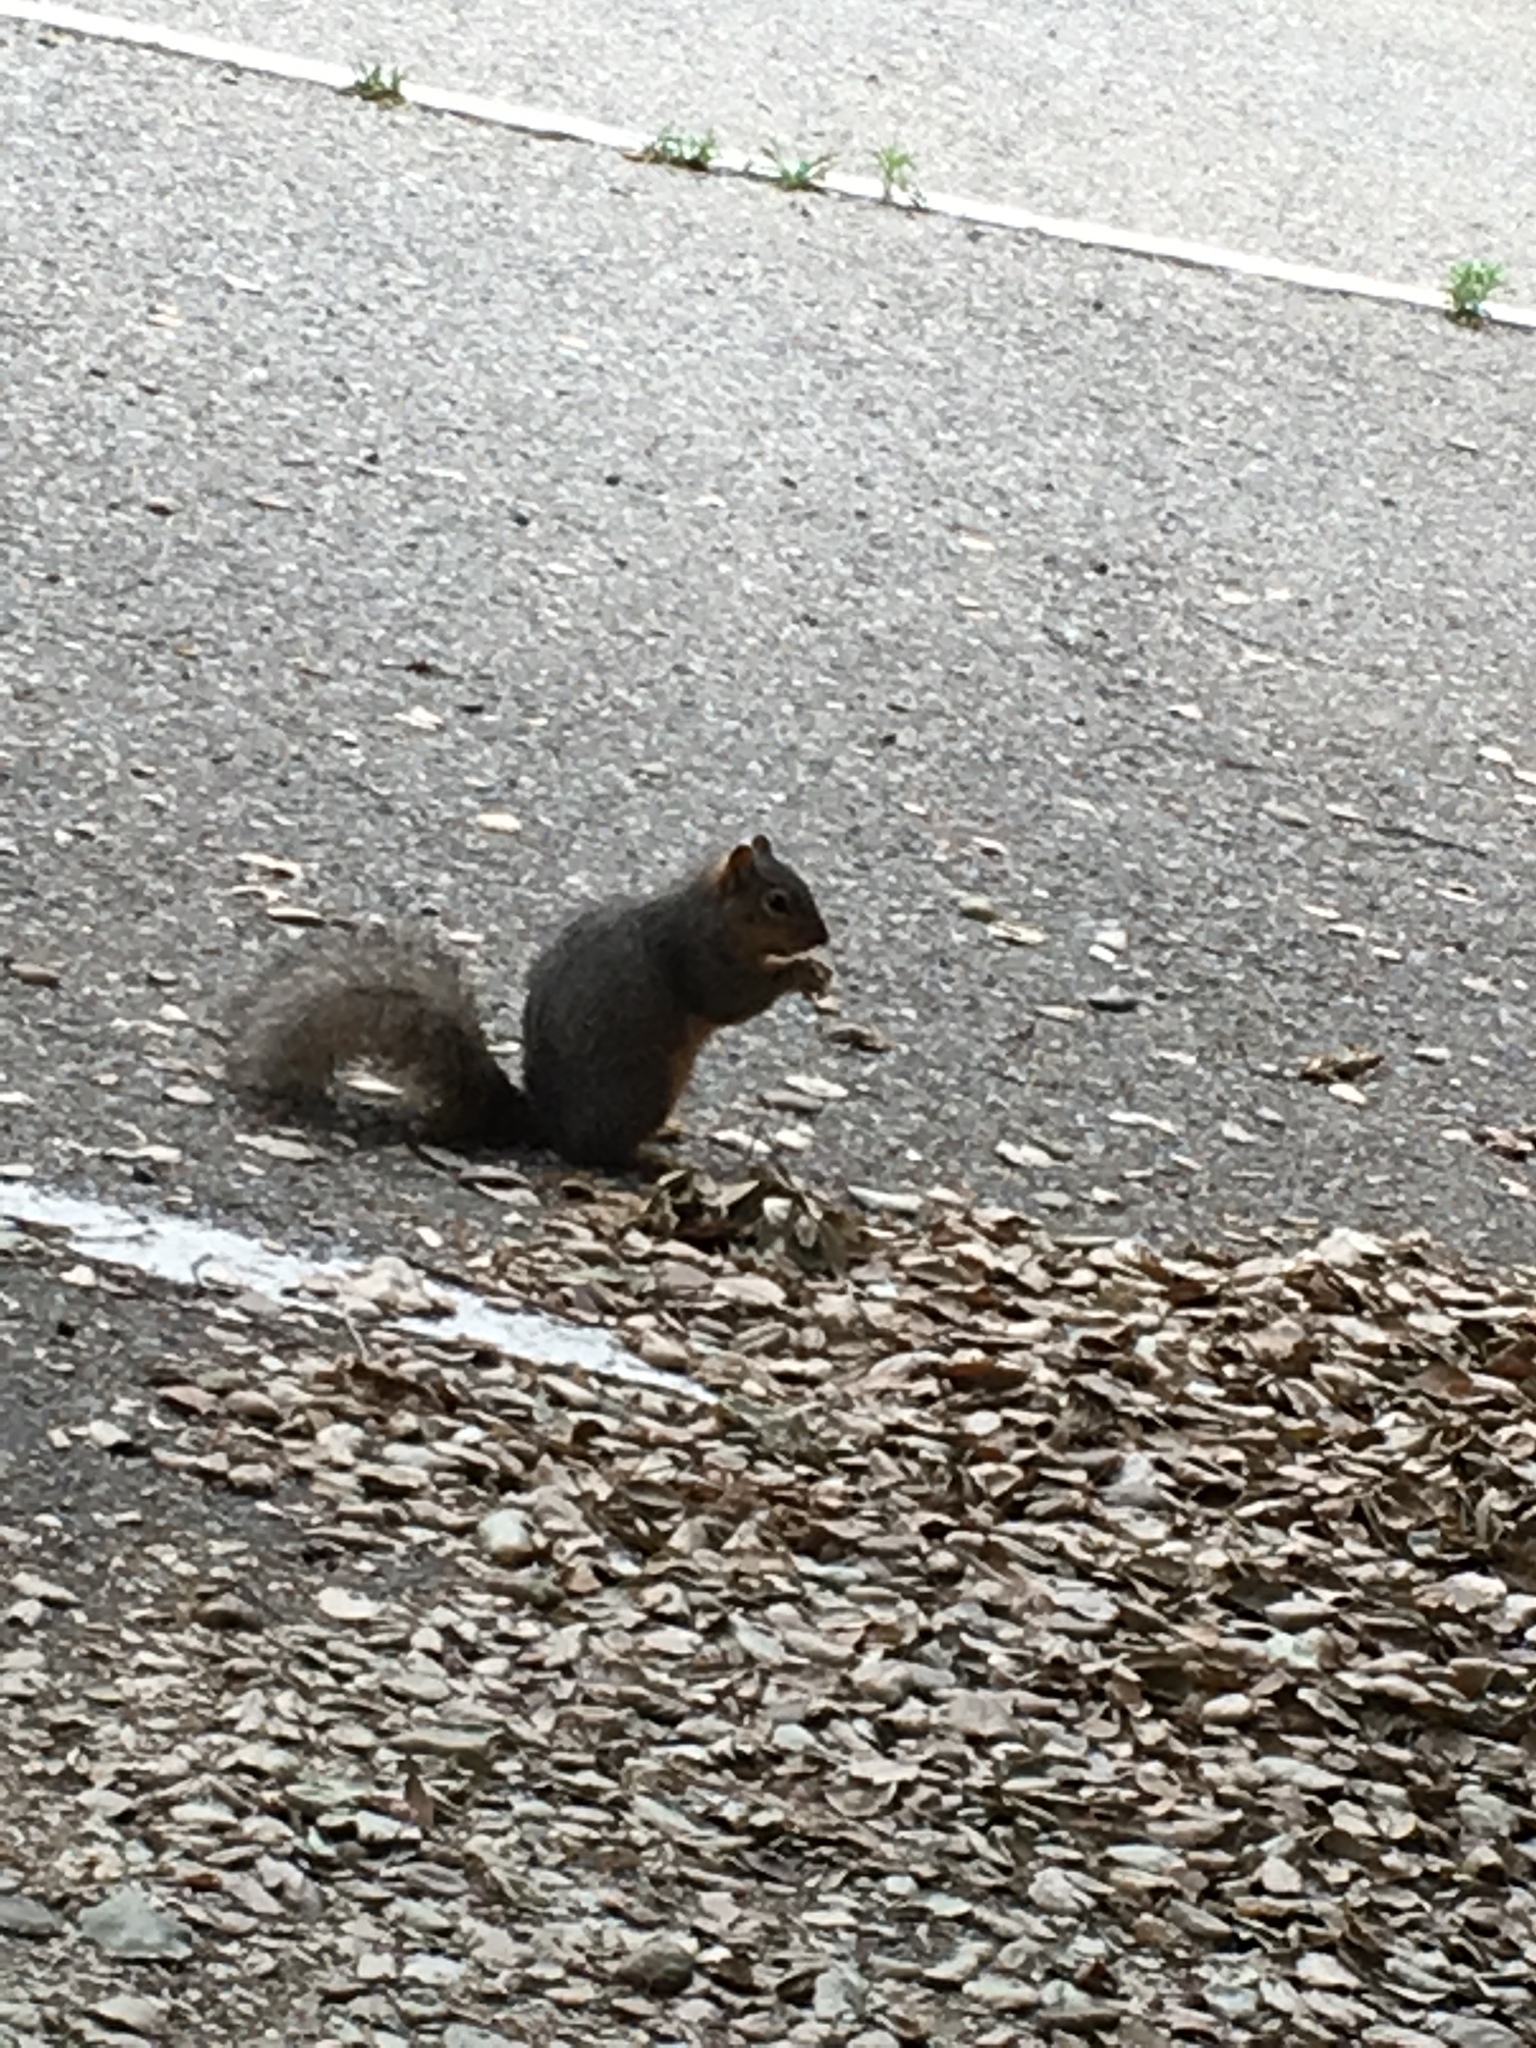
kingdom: Animalia
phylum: Chordata
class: Mammalia
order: Rodentia
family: Sciuridae
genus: Sciurus
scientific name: Sciurus niger
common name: Fox squirrel
